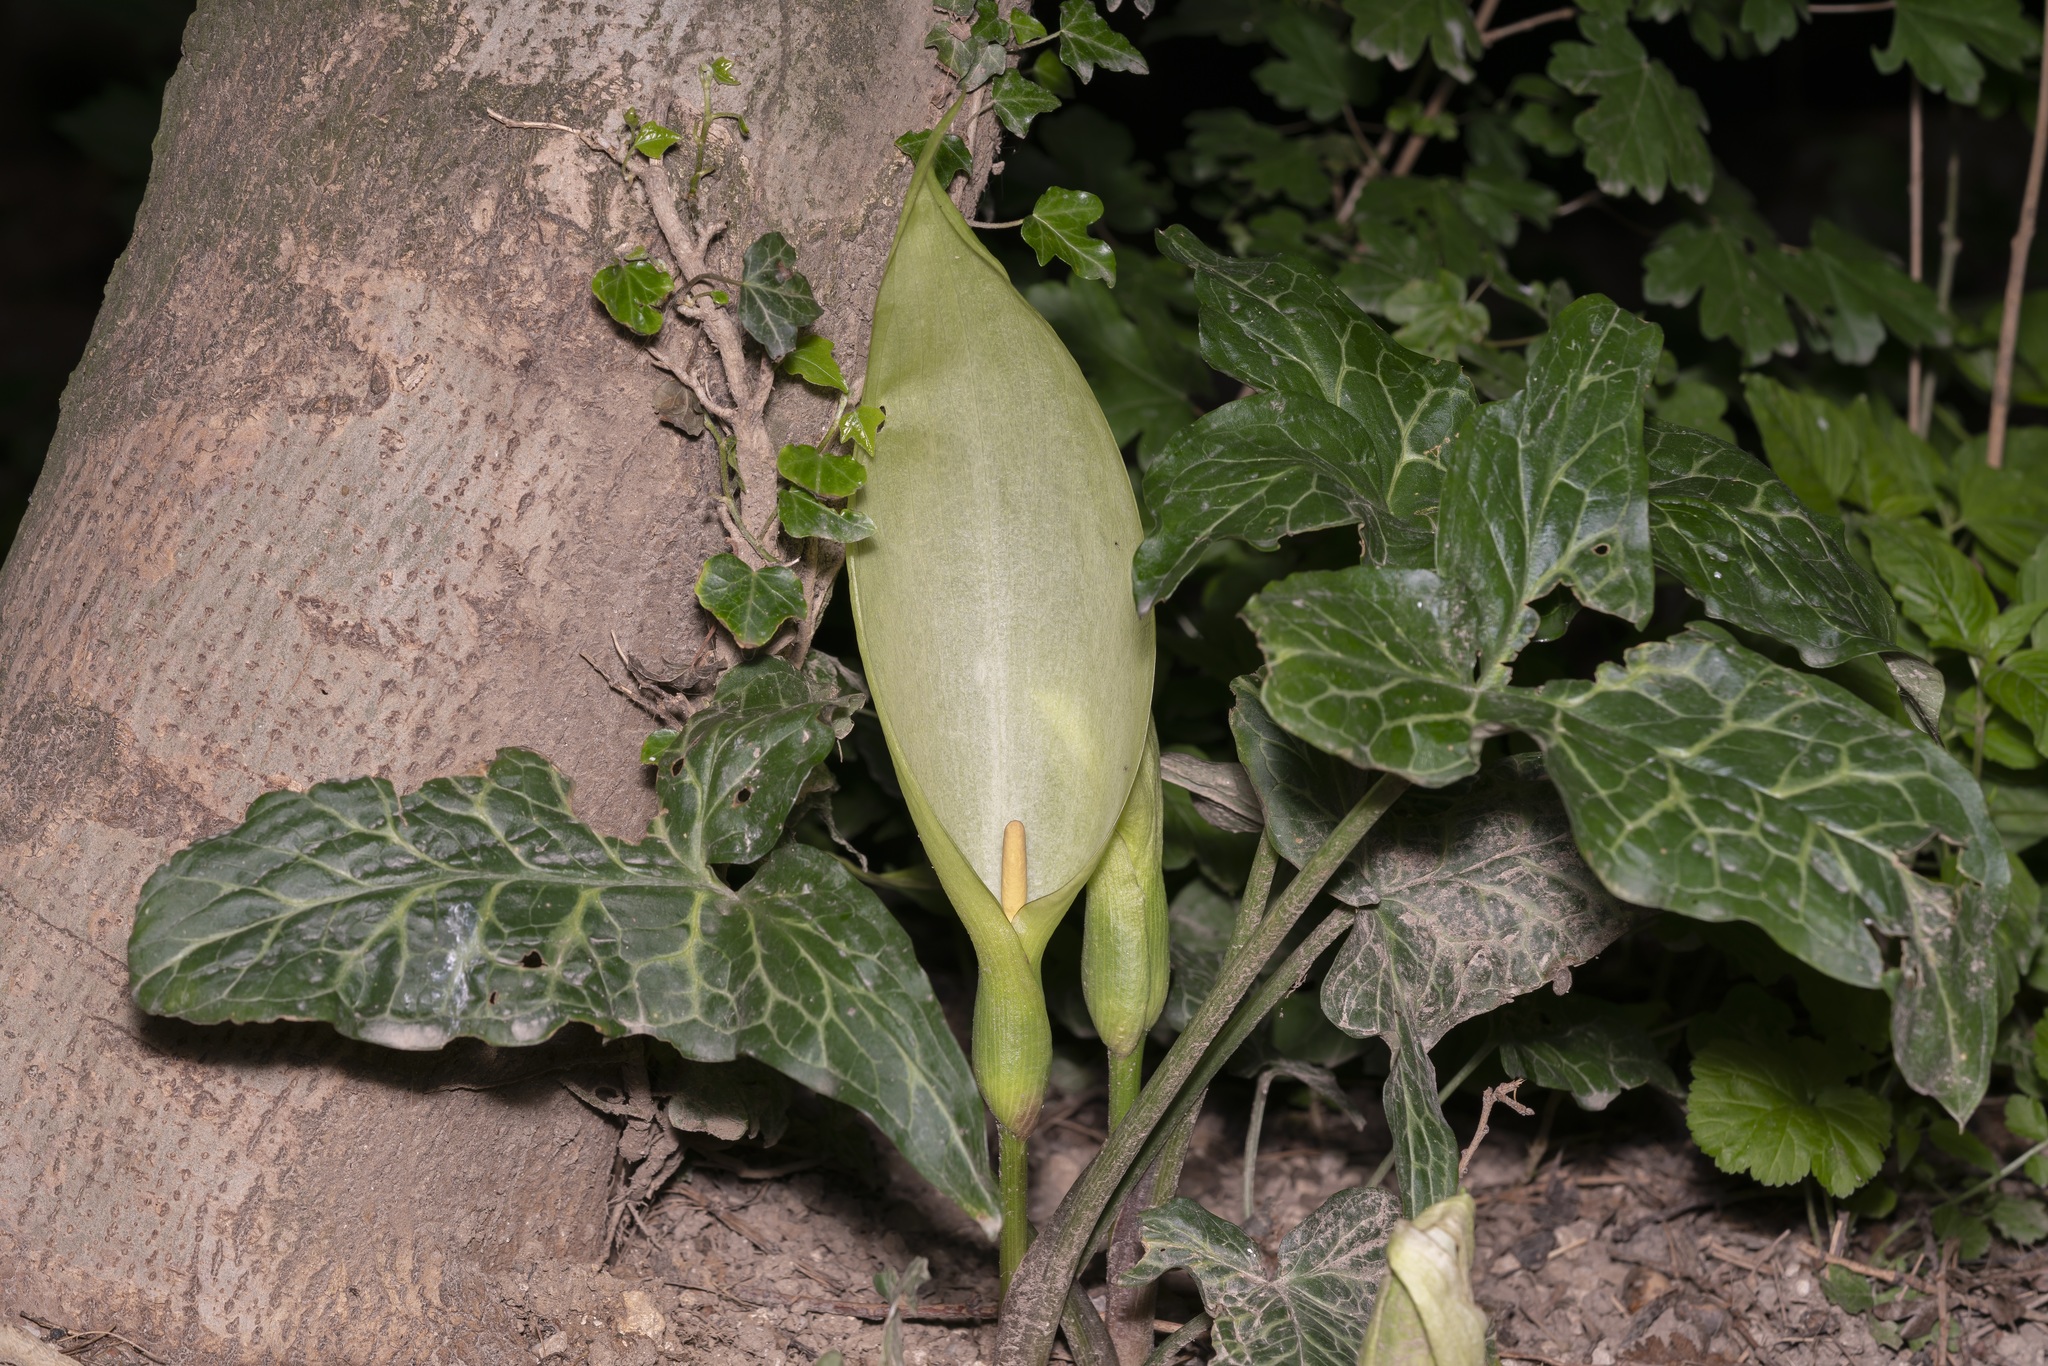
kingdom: Plantae
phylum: Tracheophyta
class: Liliopsida
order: Alismatales
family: Araceae
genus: Arum
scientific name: Arum italicum
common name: Italian lords-and-ladies
